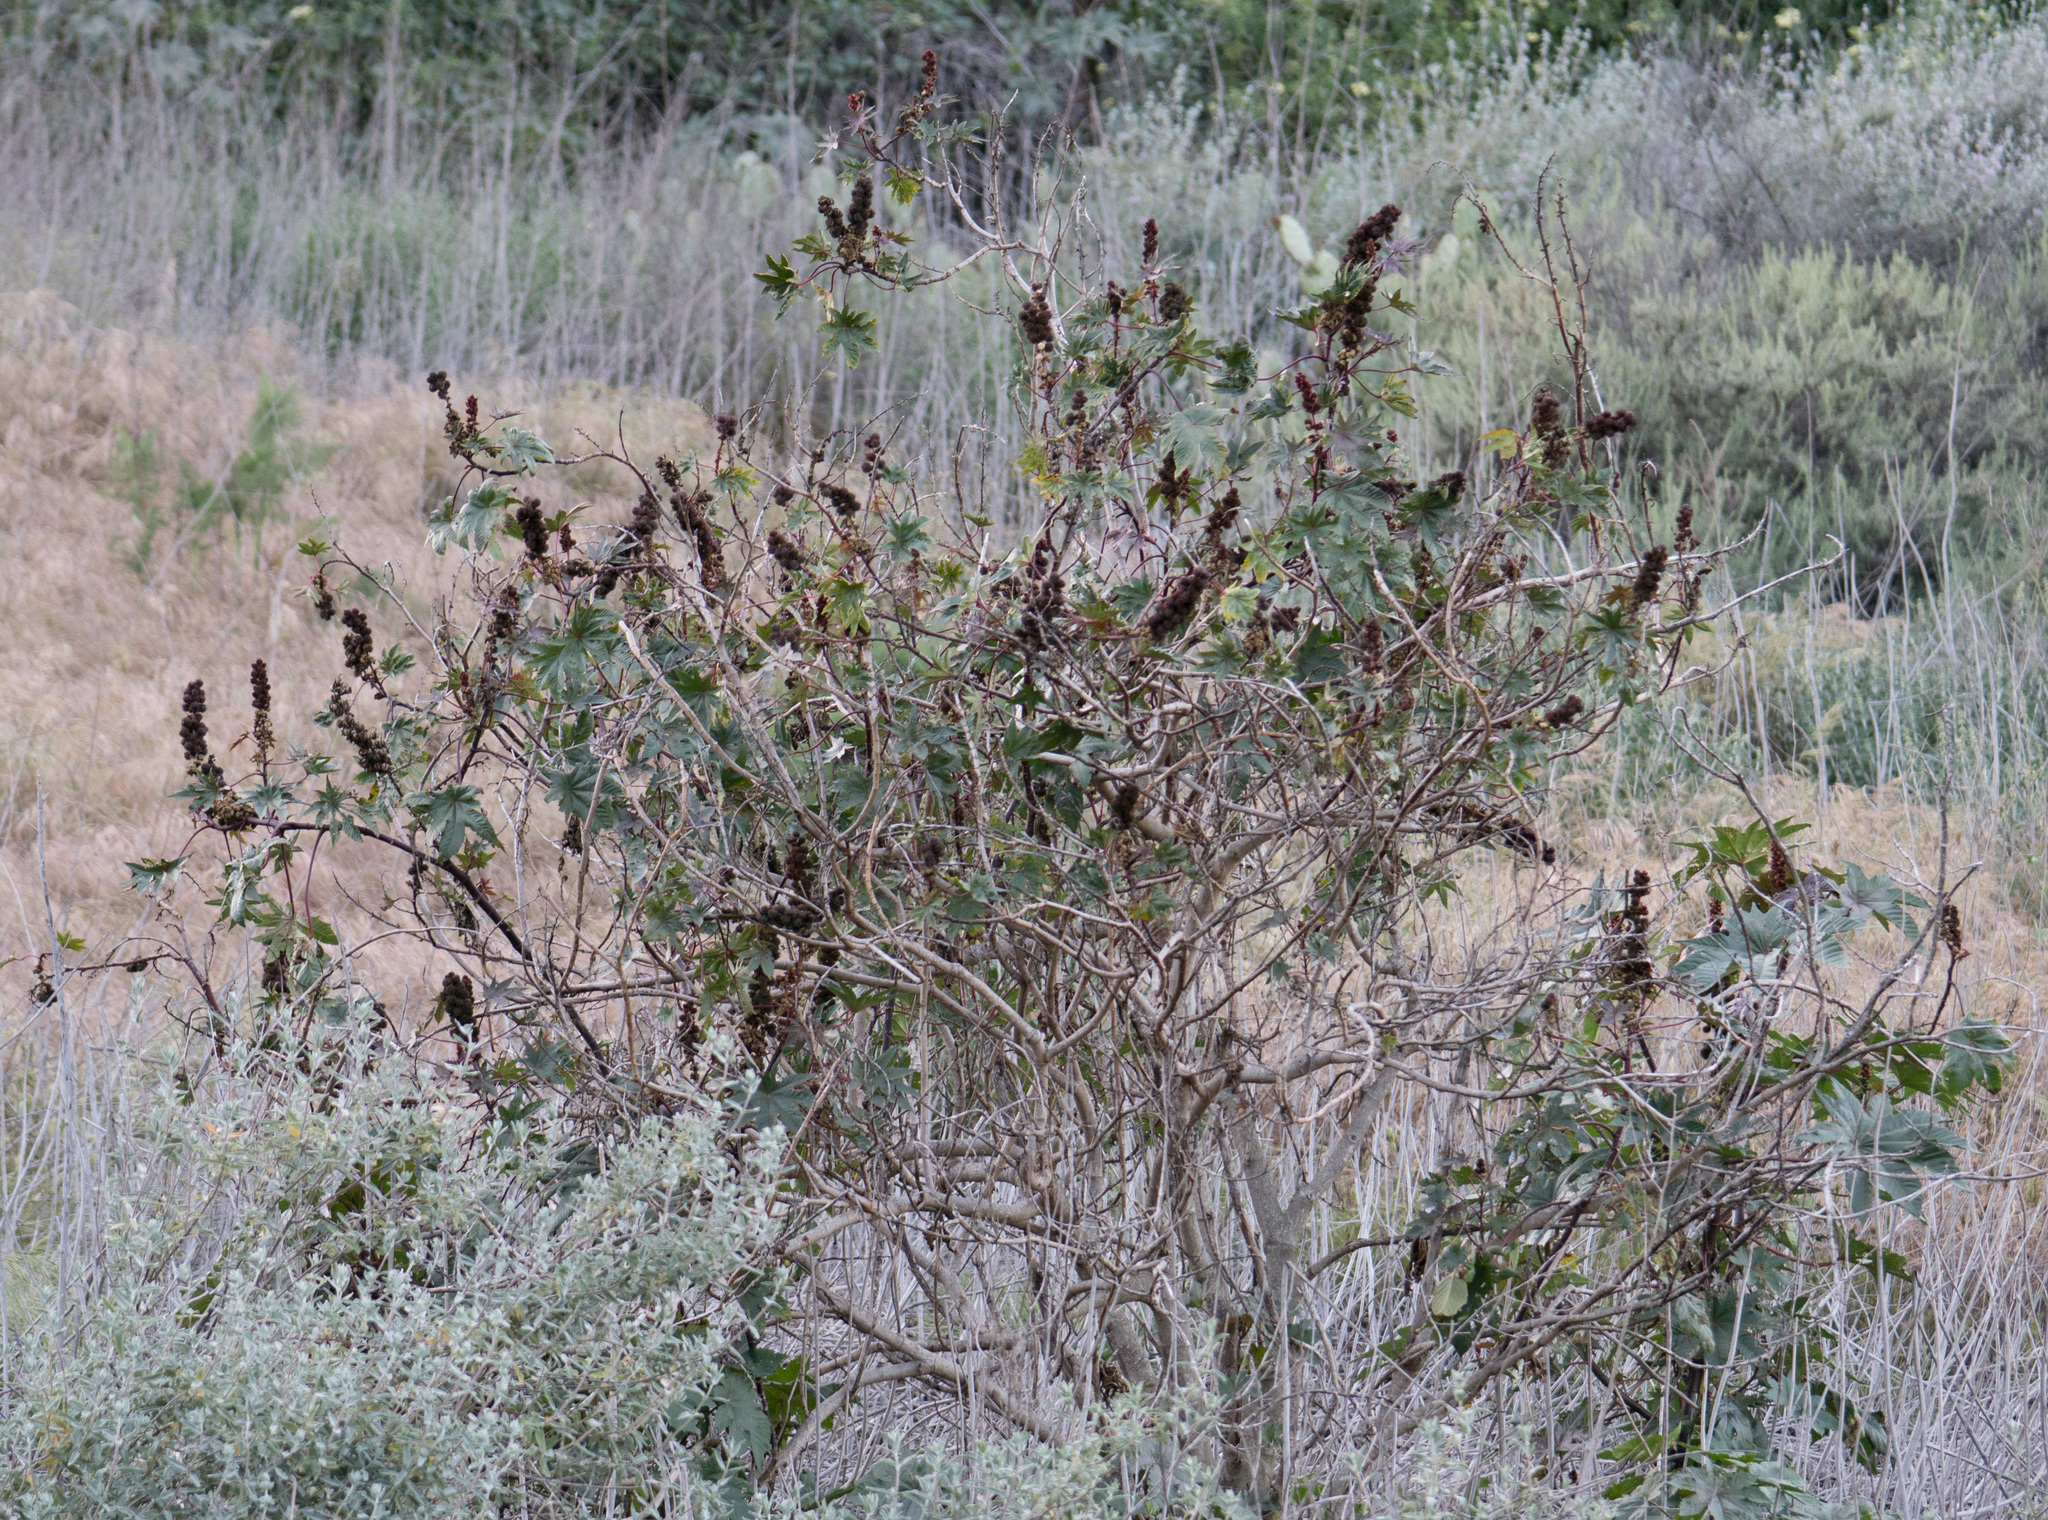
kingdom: Plantae
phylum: Tracheophyta
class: Magnoliopsida
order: Malpighiales
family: Euphorbiaceae
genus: Ricinus
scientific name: Ricinus communis
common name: Castor-oil-plant
